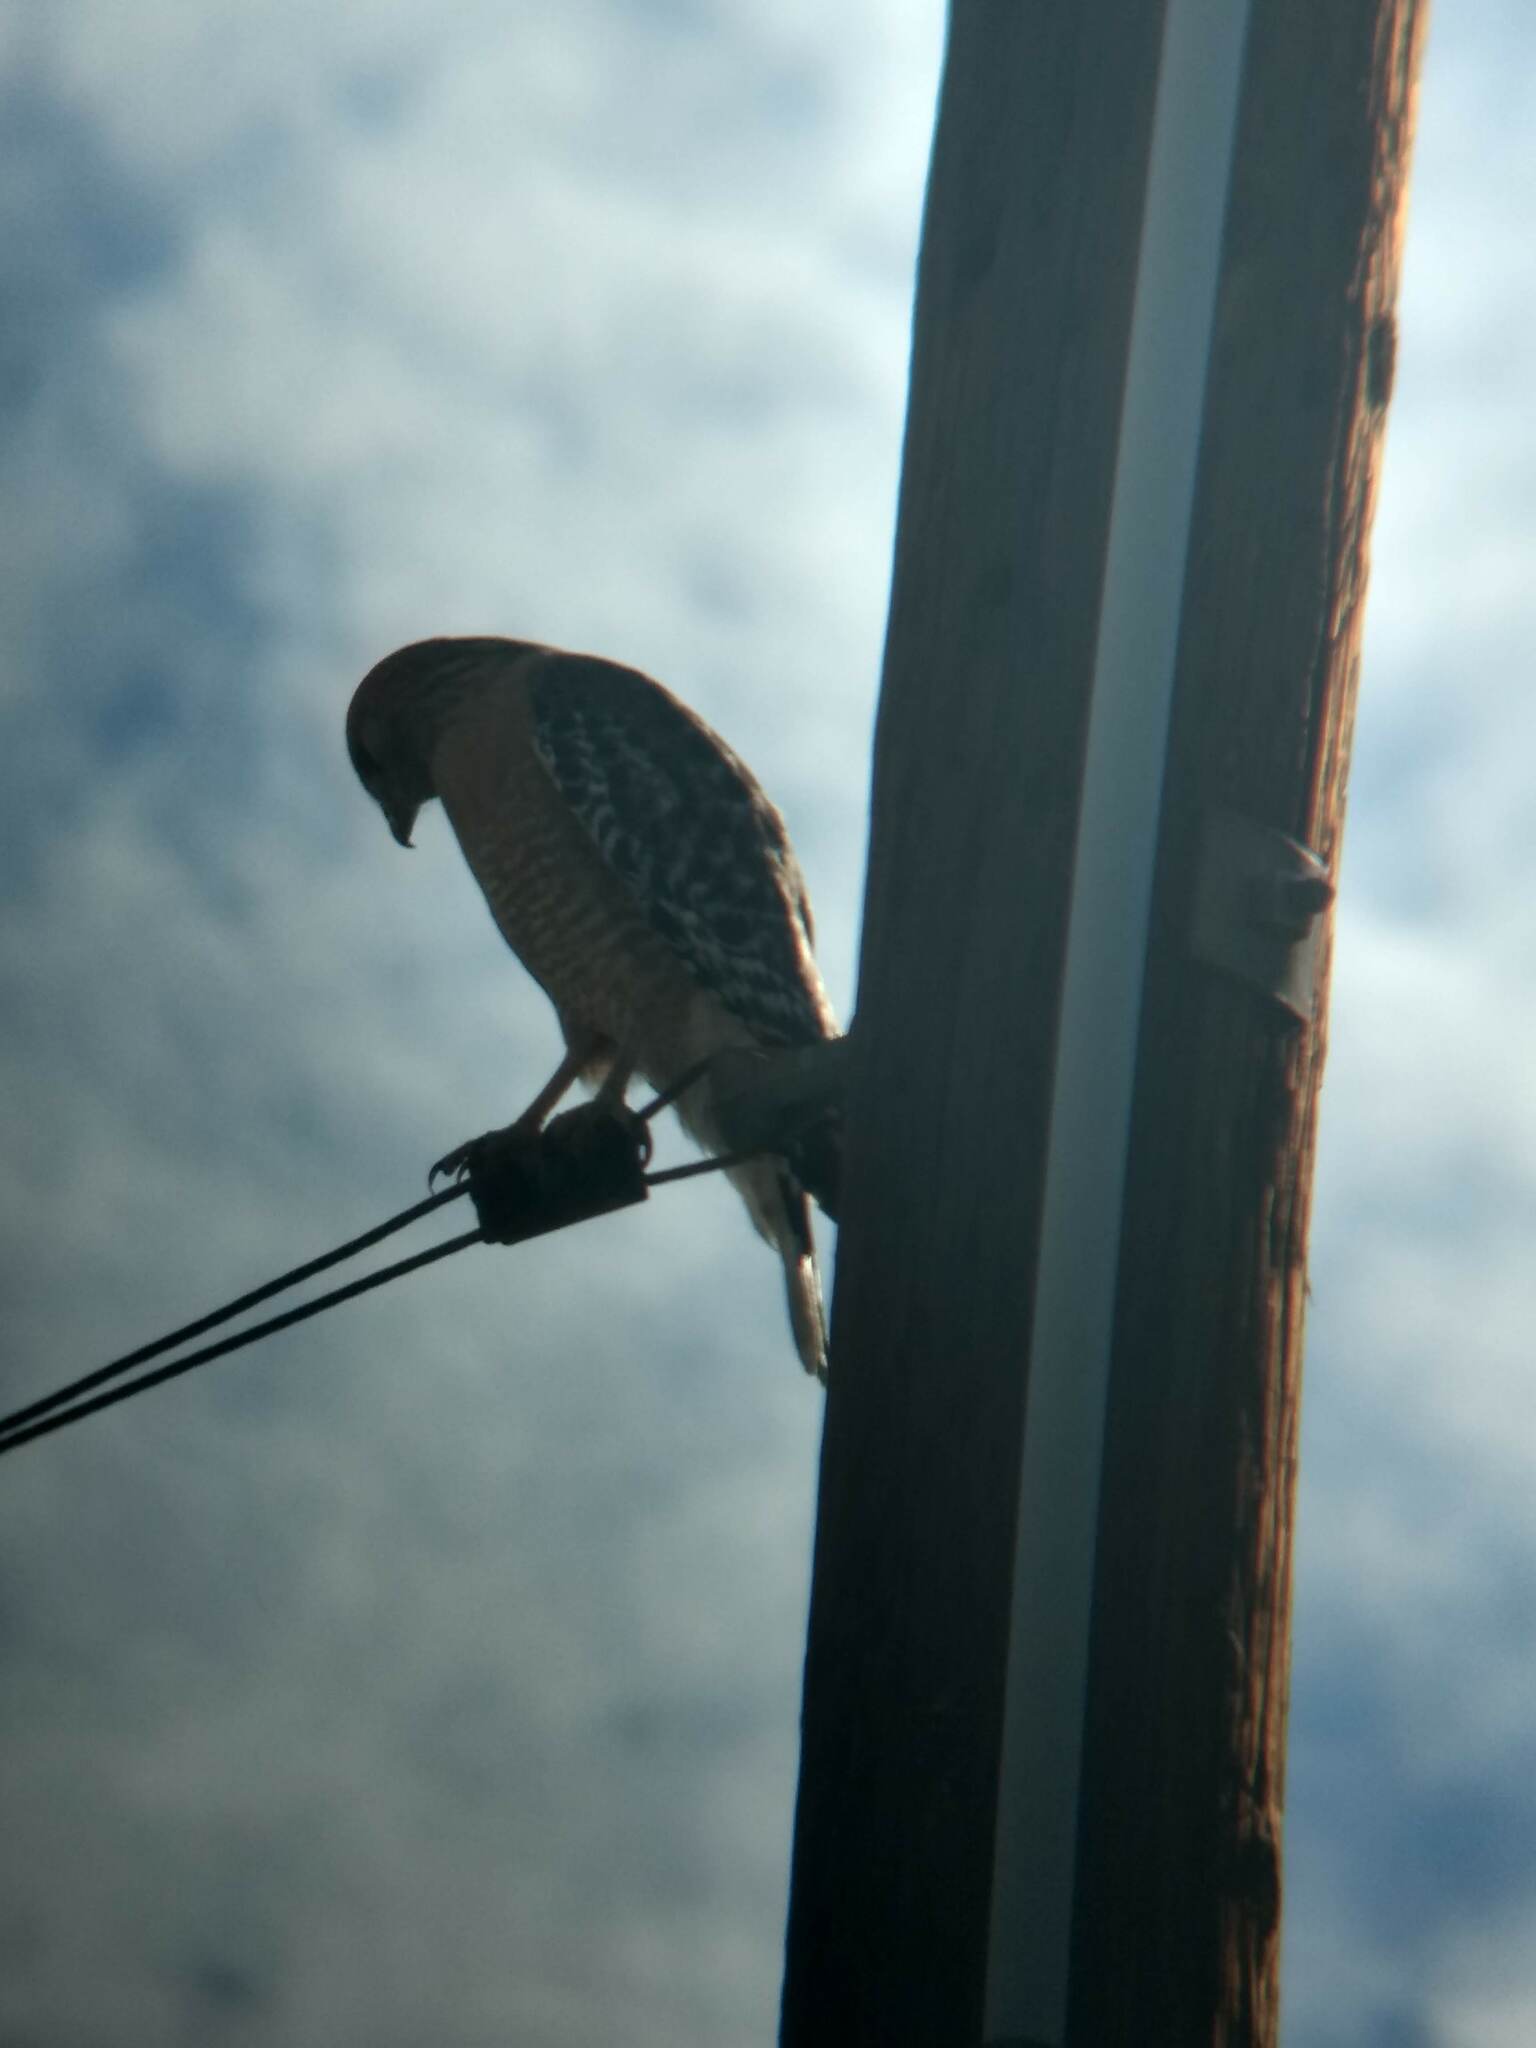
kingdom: Animalia
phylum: Chordata
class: Aves
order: Accipitriformes
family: Accipitridae
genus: Buteo
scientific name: Buteo lineatus
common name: Red-shouldered hawk
